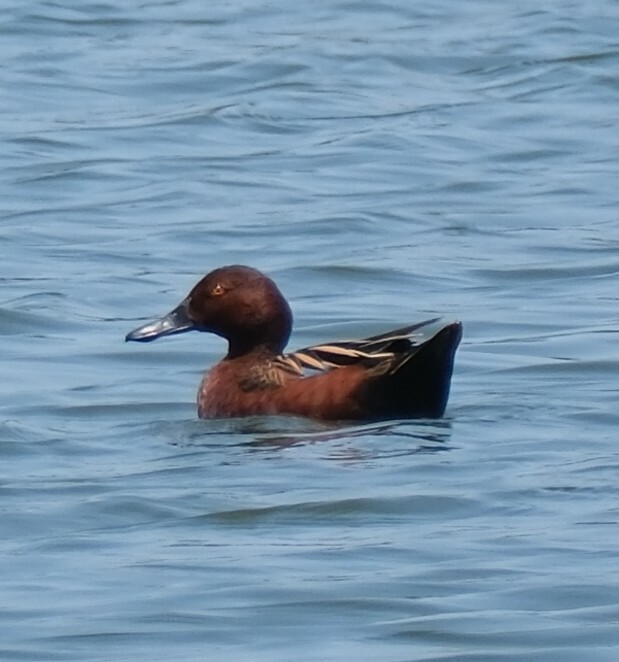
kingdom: Animalia
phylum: Chordata
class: Aves
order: Anseriformes
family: Anatidae
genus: Spatula
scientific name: Spatula cyanoptera
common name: Cinnamon teal
